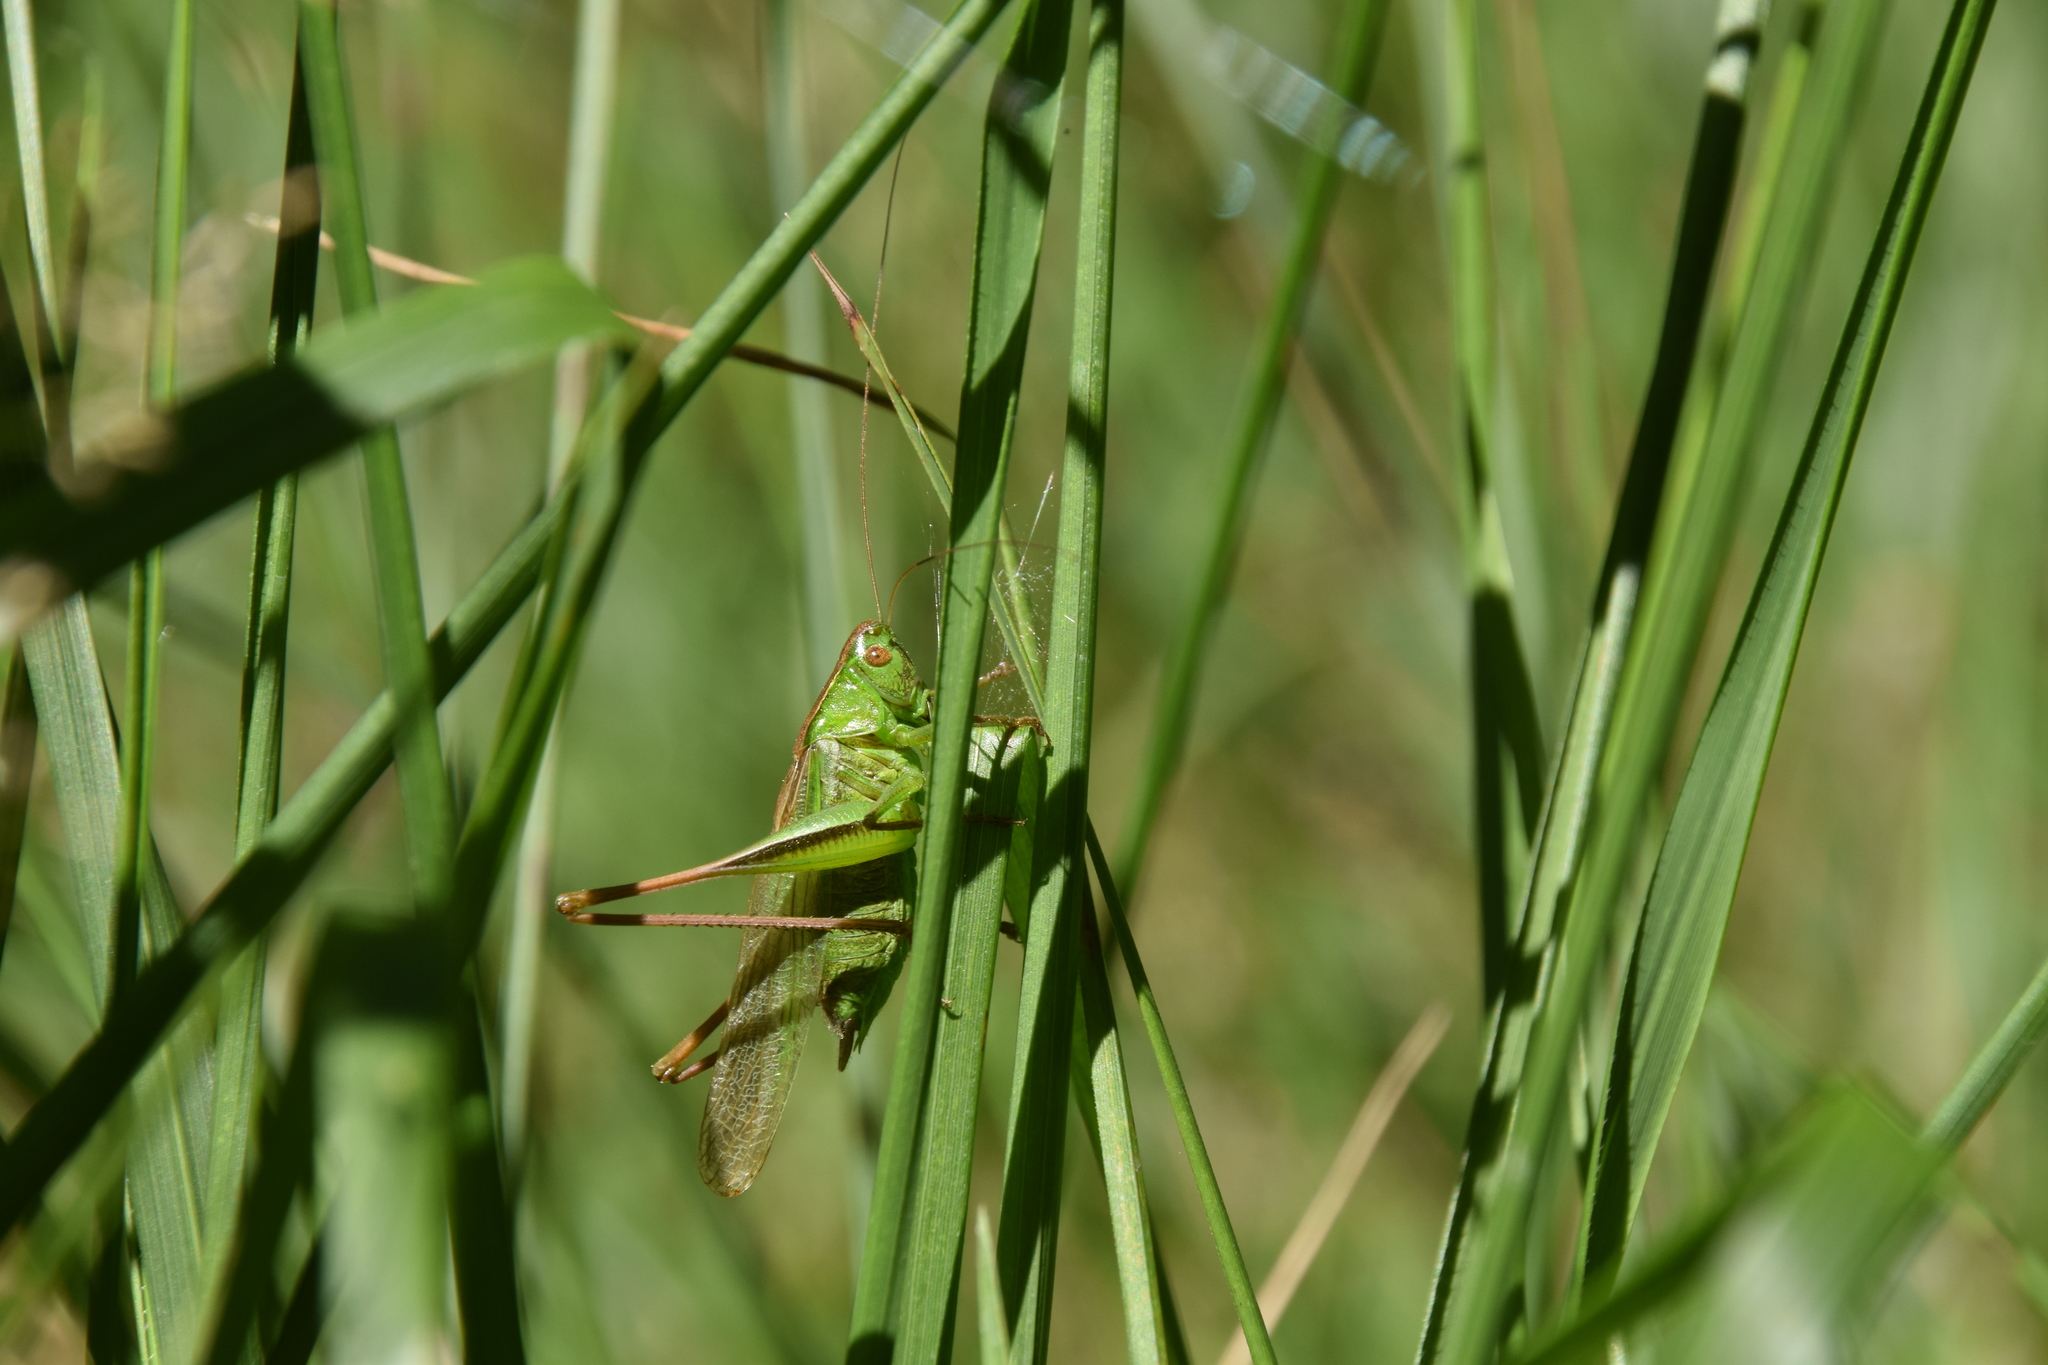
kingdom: Animalia
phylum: Arthropoda
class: Insecta
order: Orthoptera
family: Tettigoniidae
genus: Bicolorana
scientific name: Bicolorana bicolor
